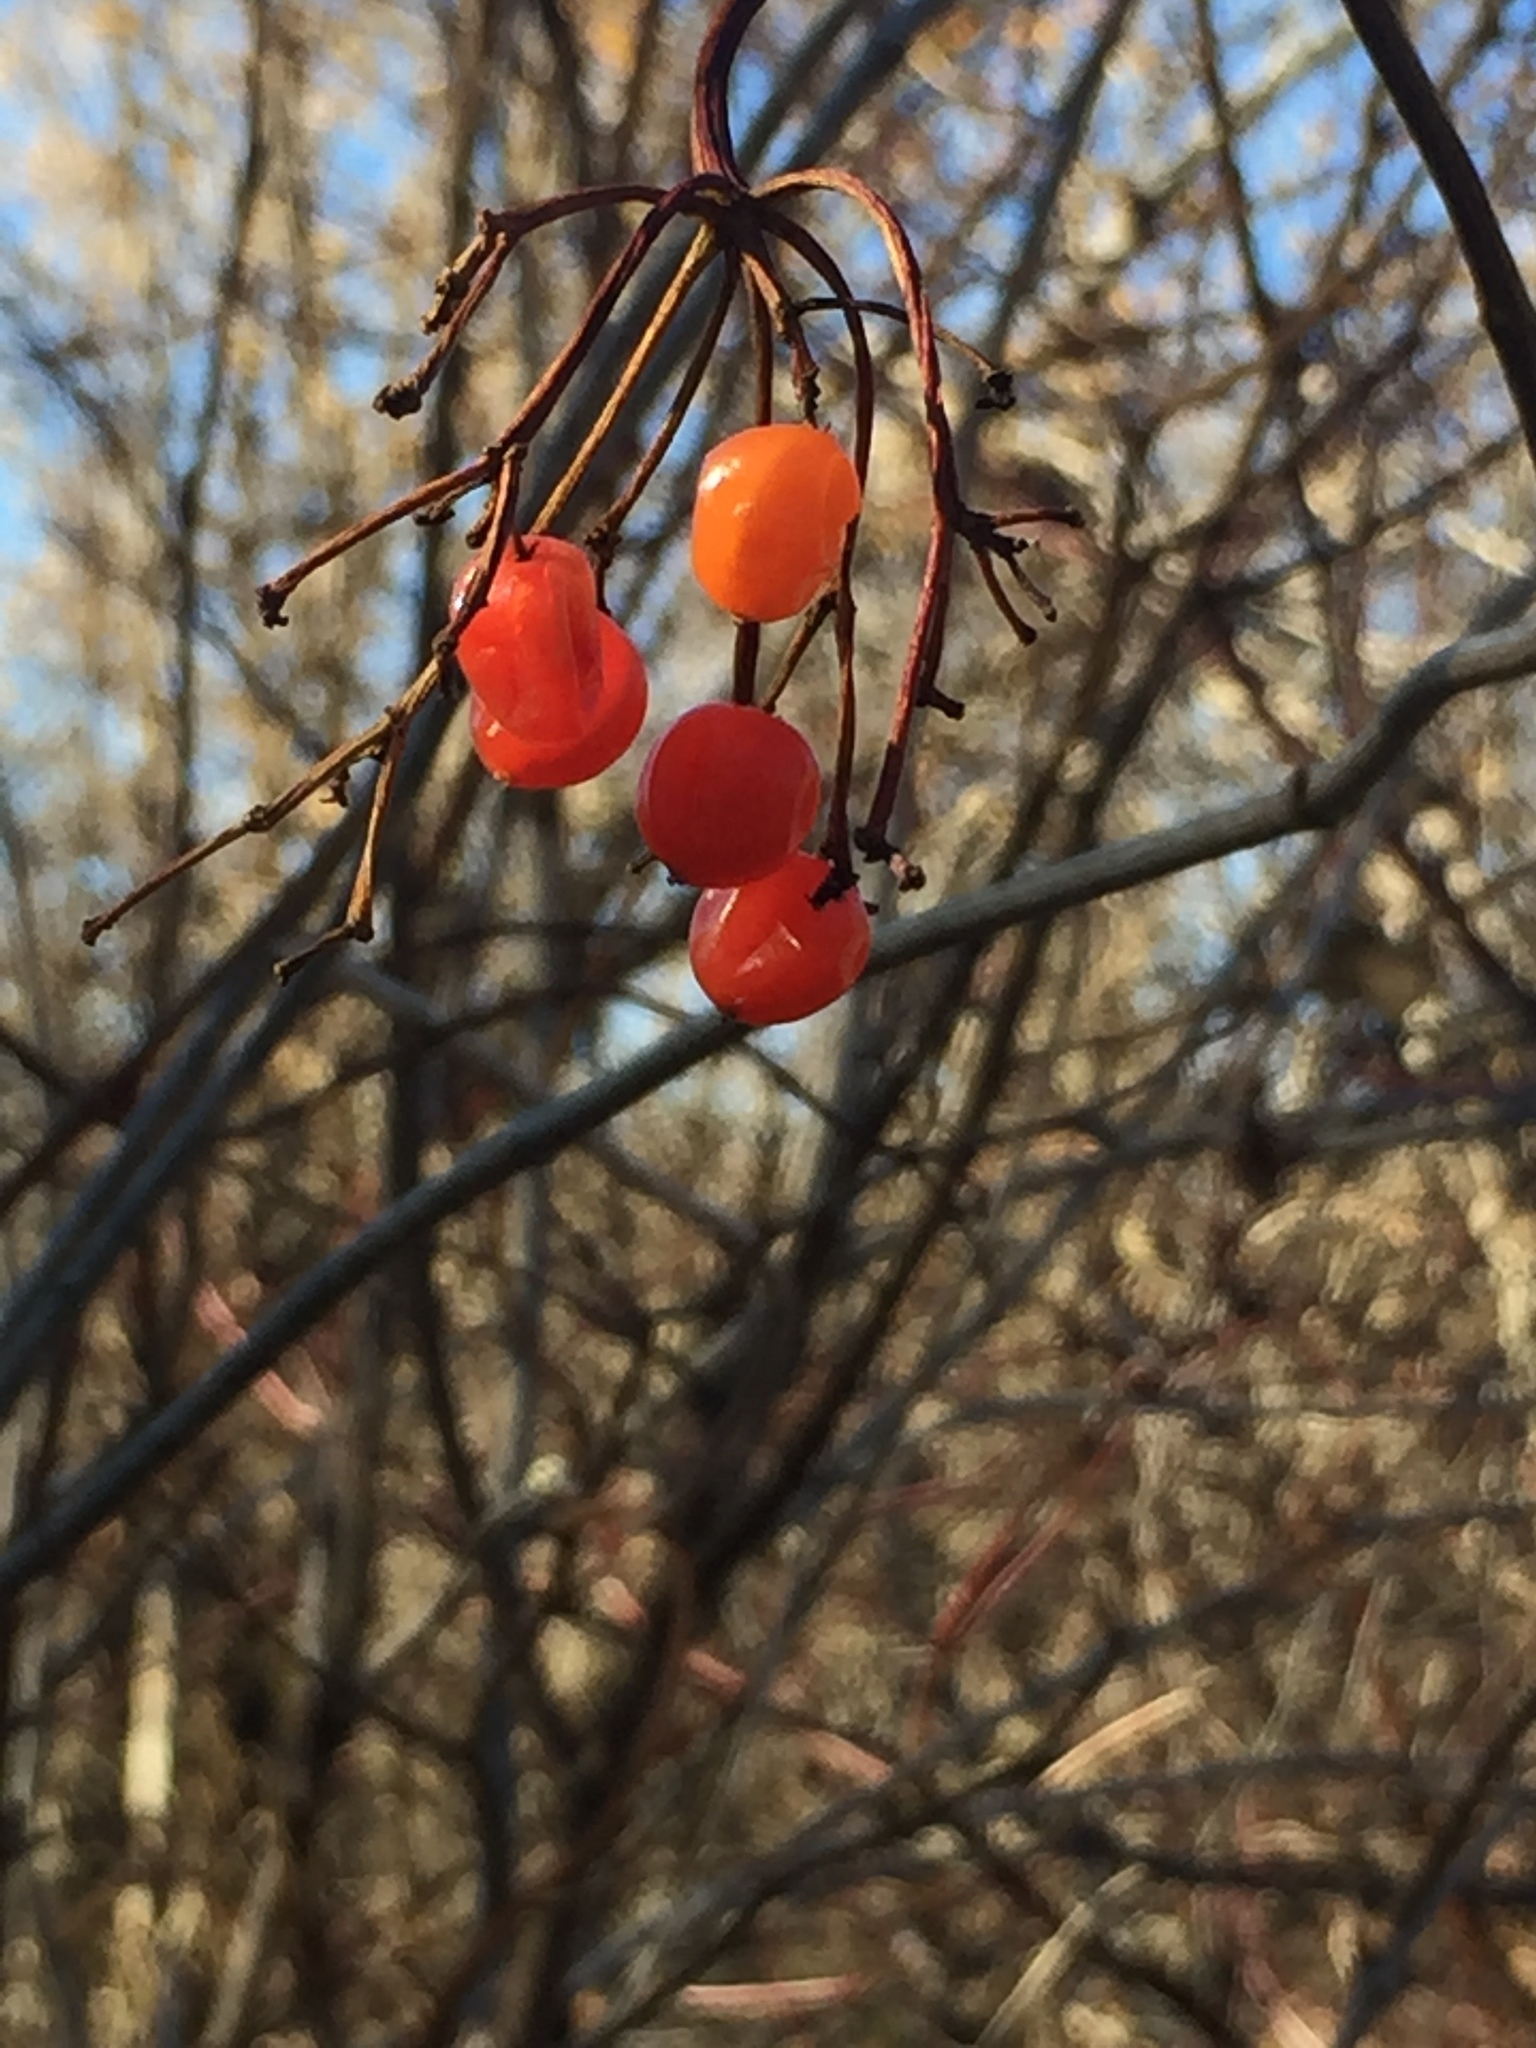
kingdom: Plantae
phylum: Tracheophyta
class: Magnoliopsida
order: Dipsacales
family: Viburnaceae
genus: Viburnum
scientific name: Viburnum trilobum
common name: American cranberrybush
